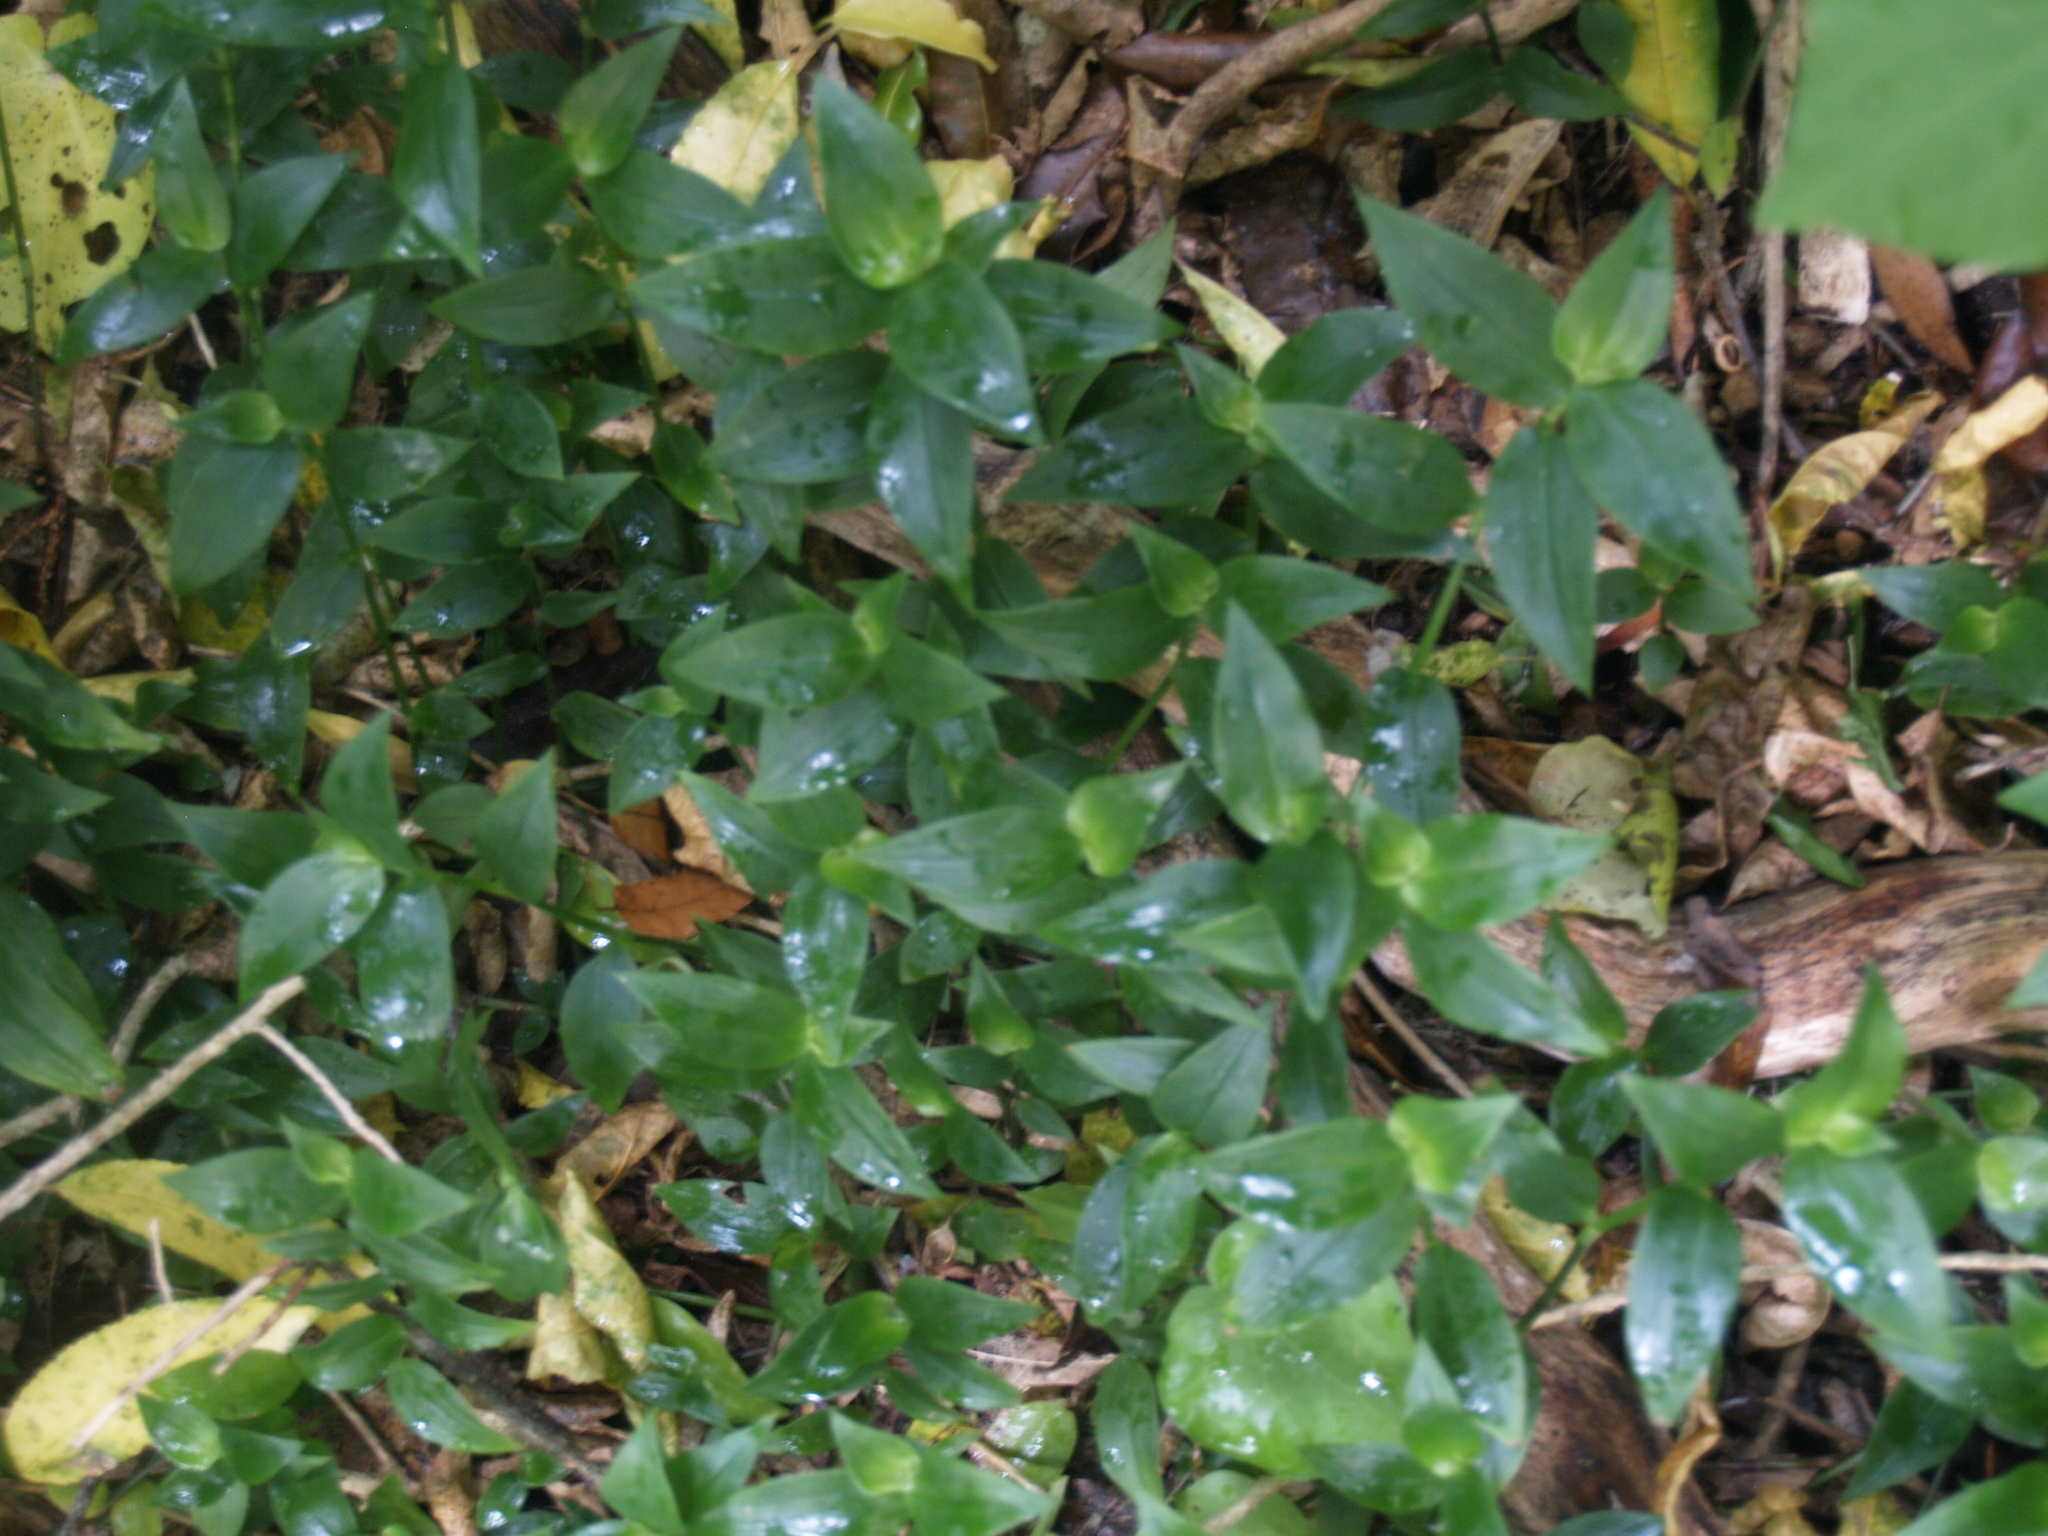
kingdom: Plantae
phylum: Tracheophyta
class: Liliopsida
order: Commelinales
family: Commelinaceae
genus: Tradescantia
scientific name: Tradescantia fluminensis
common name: Wandering-jew
